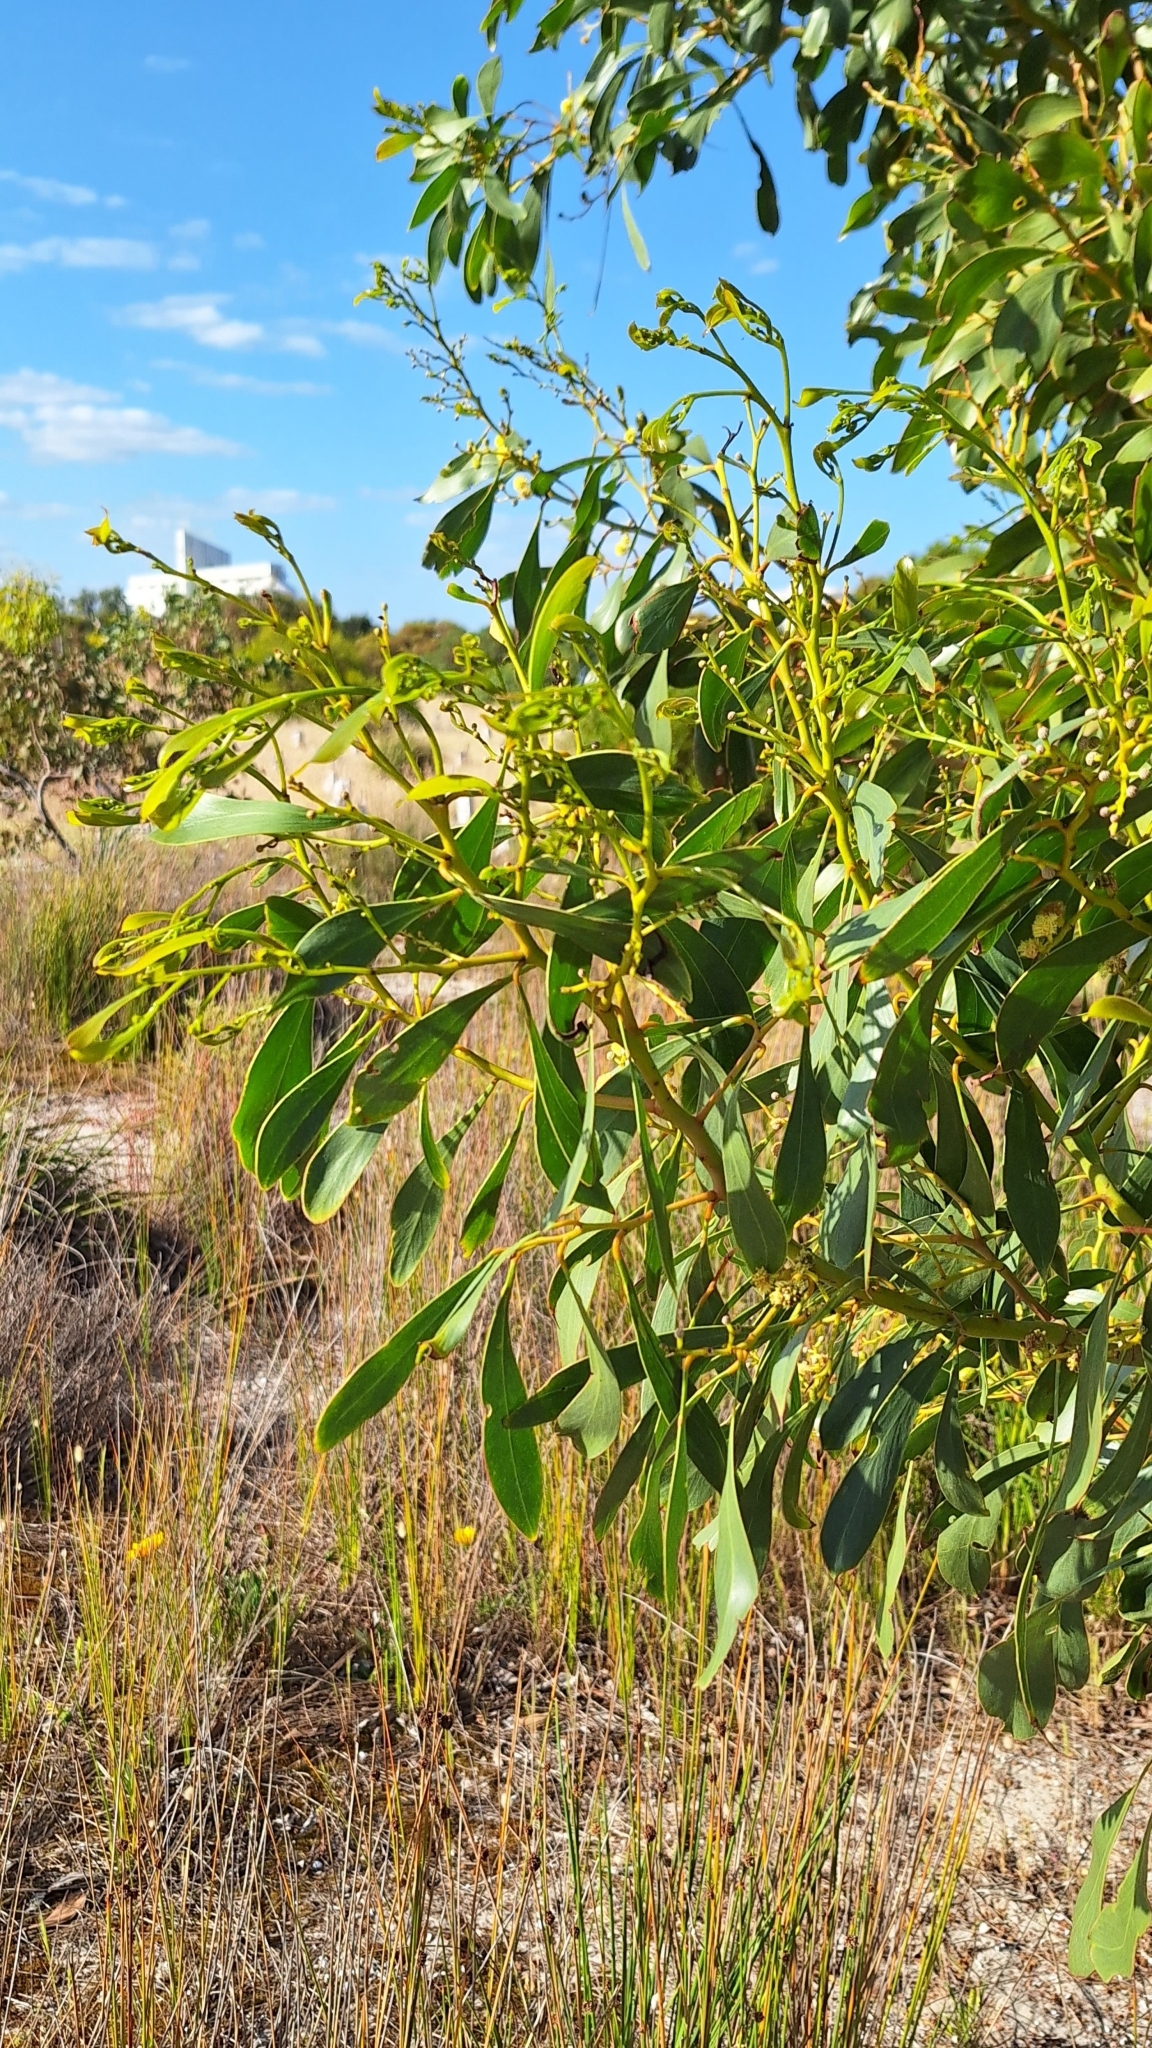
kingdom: Plantae
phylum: Tracheophyta
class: Magnoliopsida
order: Fabales
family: Fabaceae
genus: Acacia
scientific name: Acacia pycnantha
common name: Golden wattle
